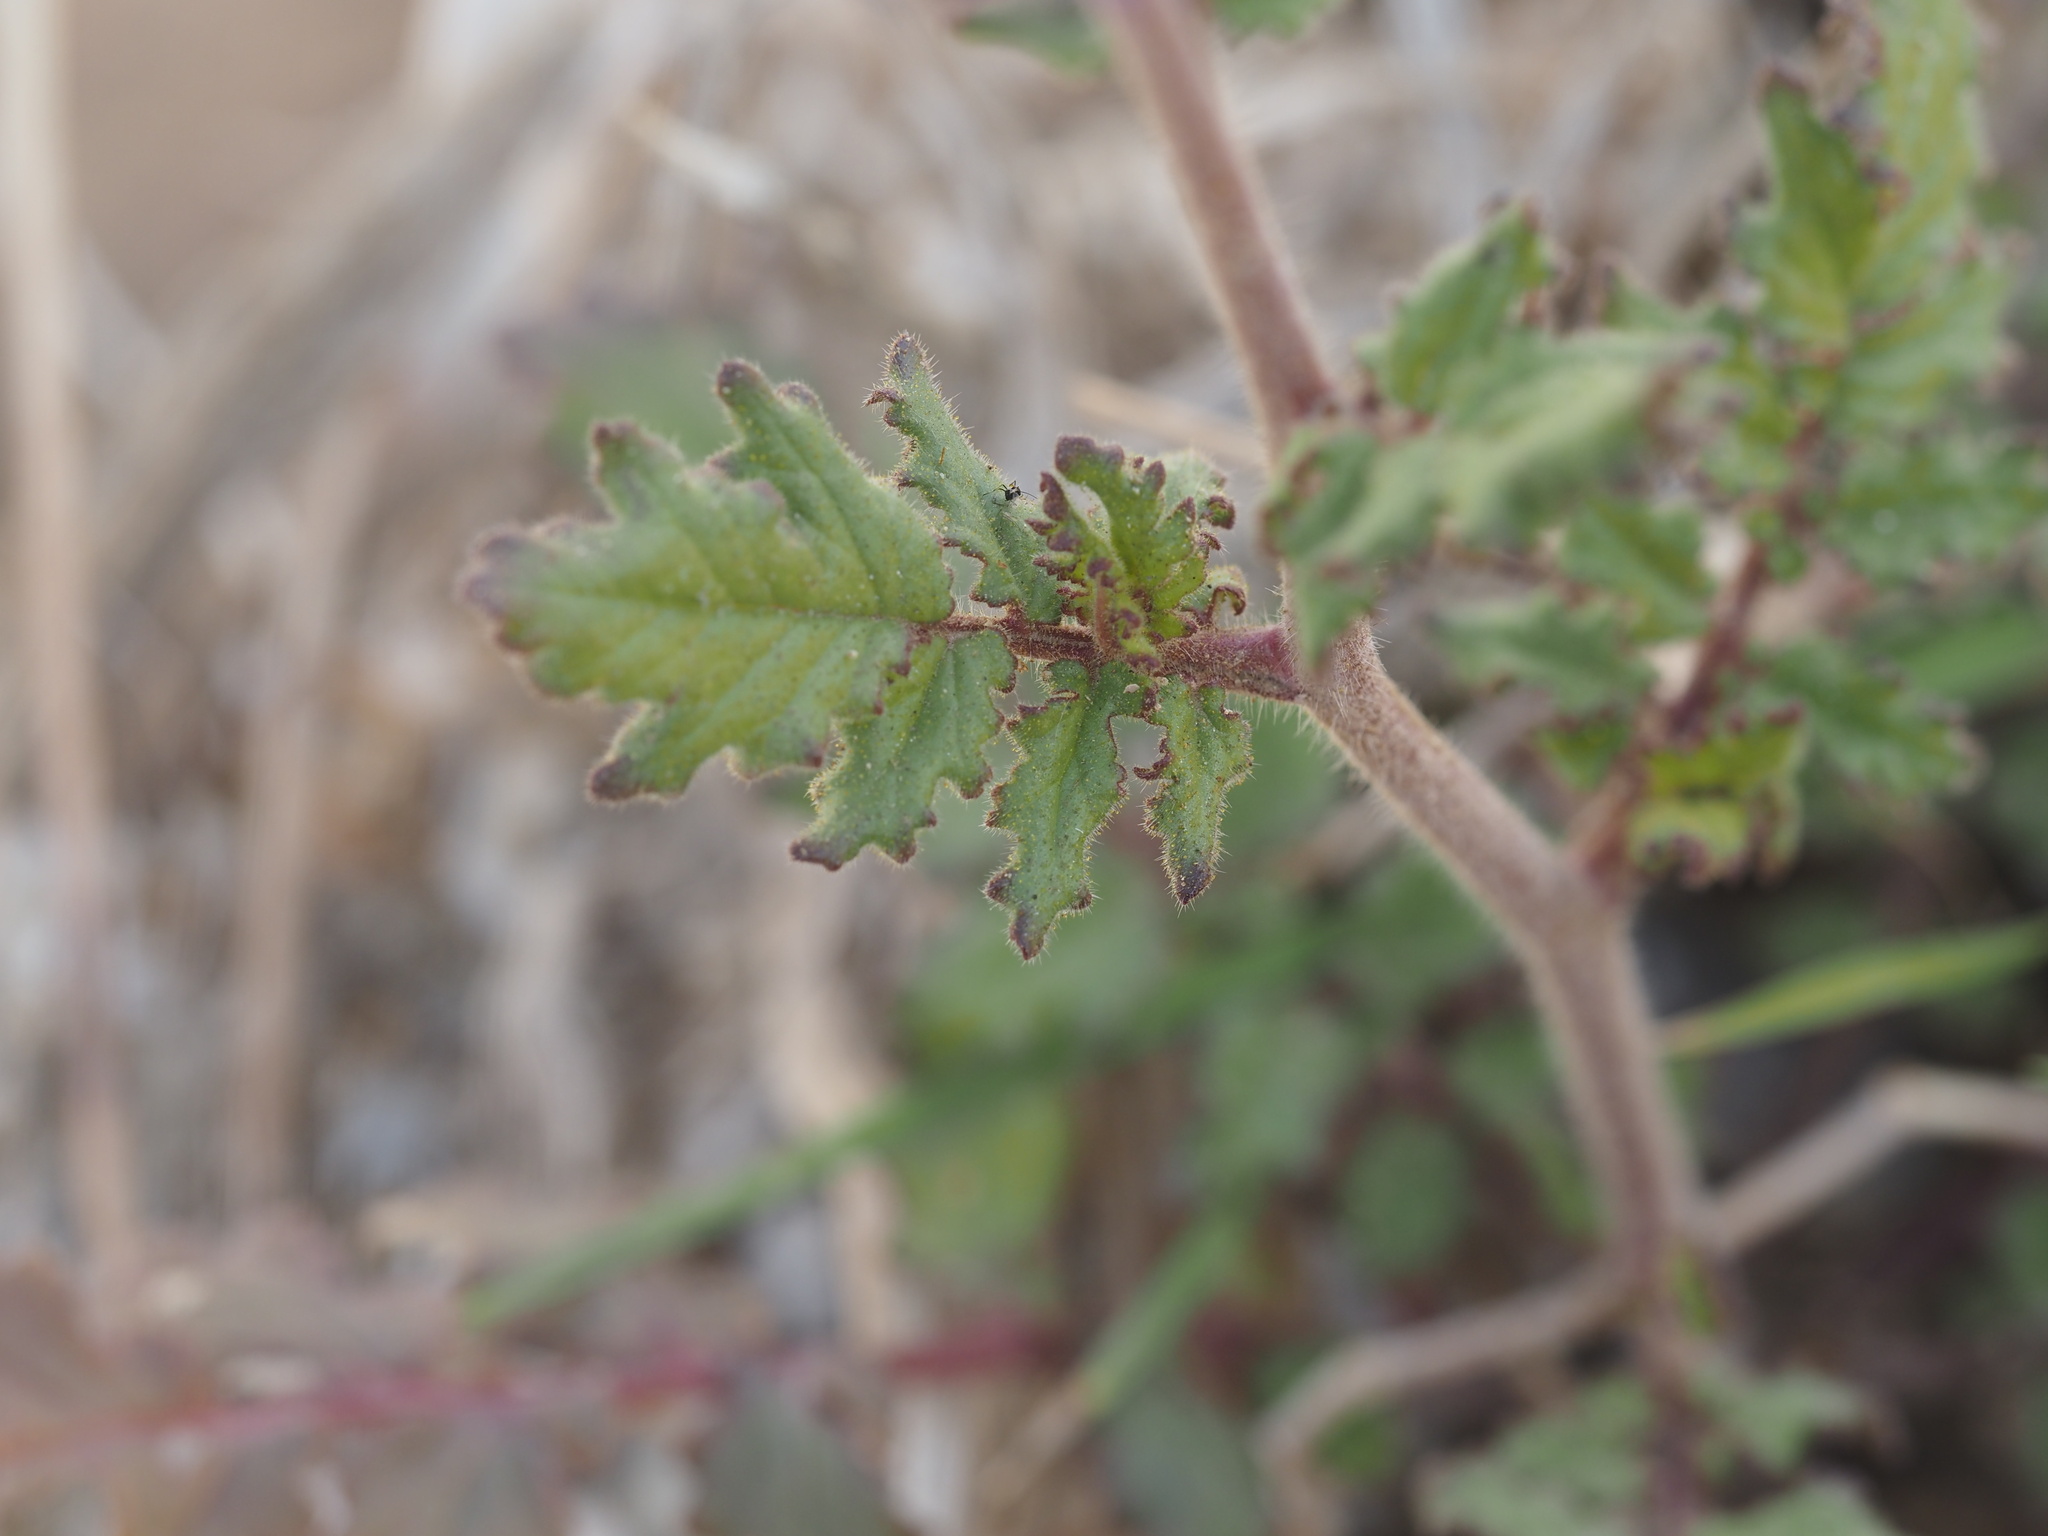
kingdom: Plantae
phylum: Tracheophyta
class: Magnoliopsida
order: Boraginales
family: Hydrophyllaceae
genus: Phacelia
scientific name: Phacelia crenulata
